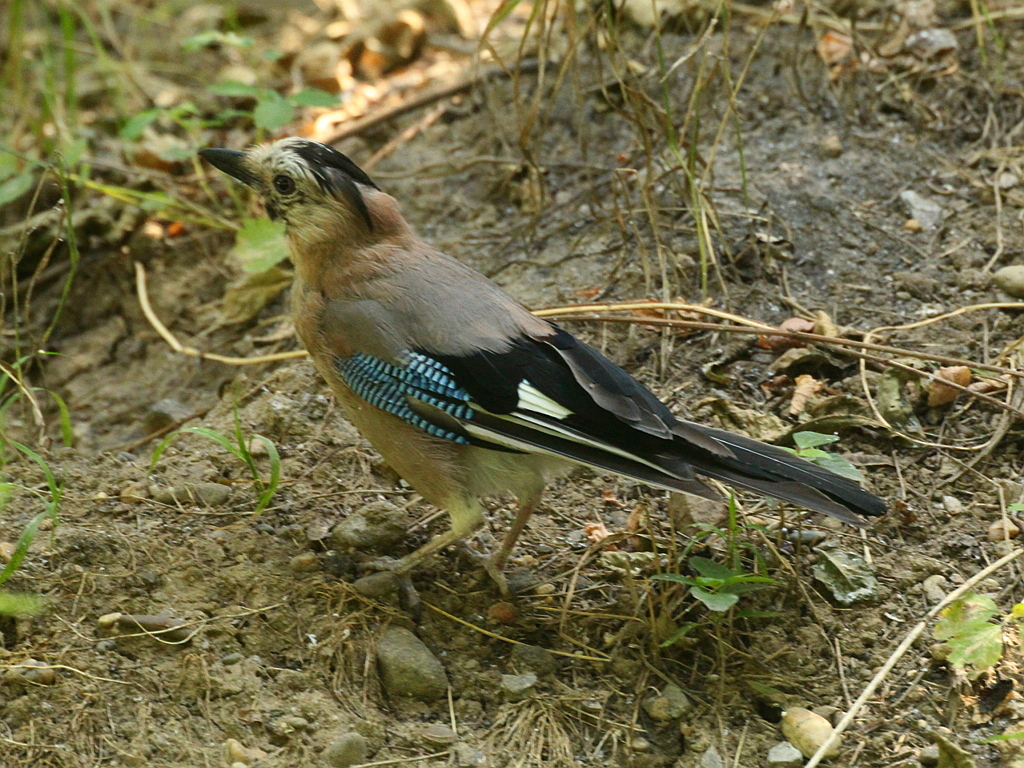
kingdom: Animalia
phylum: Chordata
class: Aves
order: Passeriformes
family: Corvidae
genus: Garrulus
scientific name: Garrulus glandarius
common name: Eurasian jay
